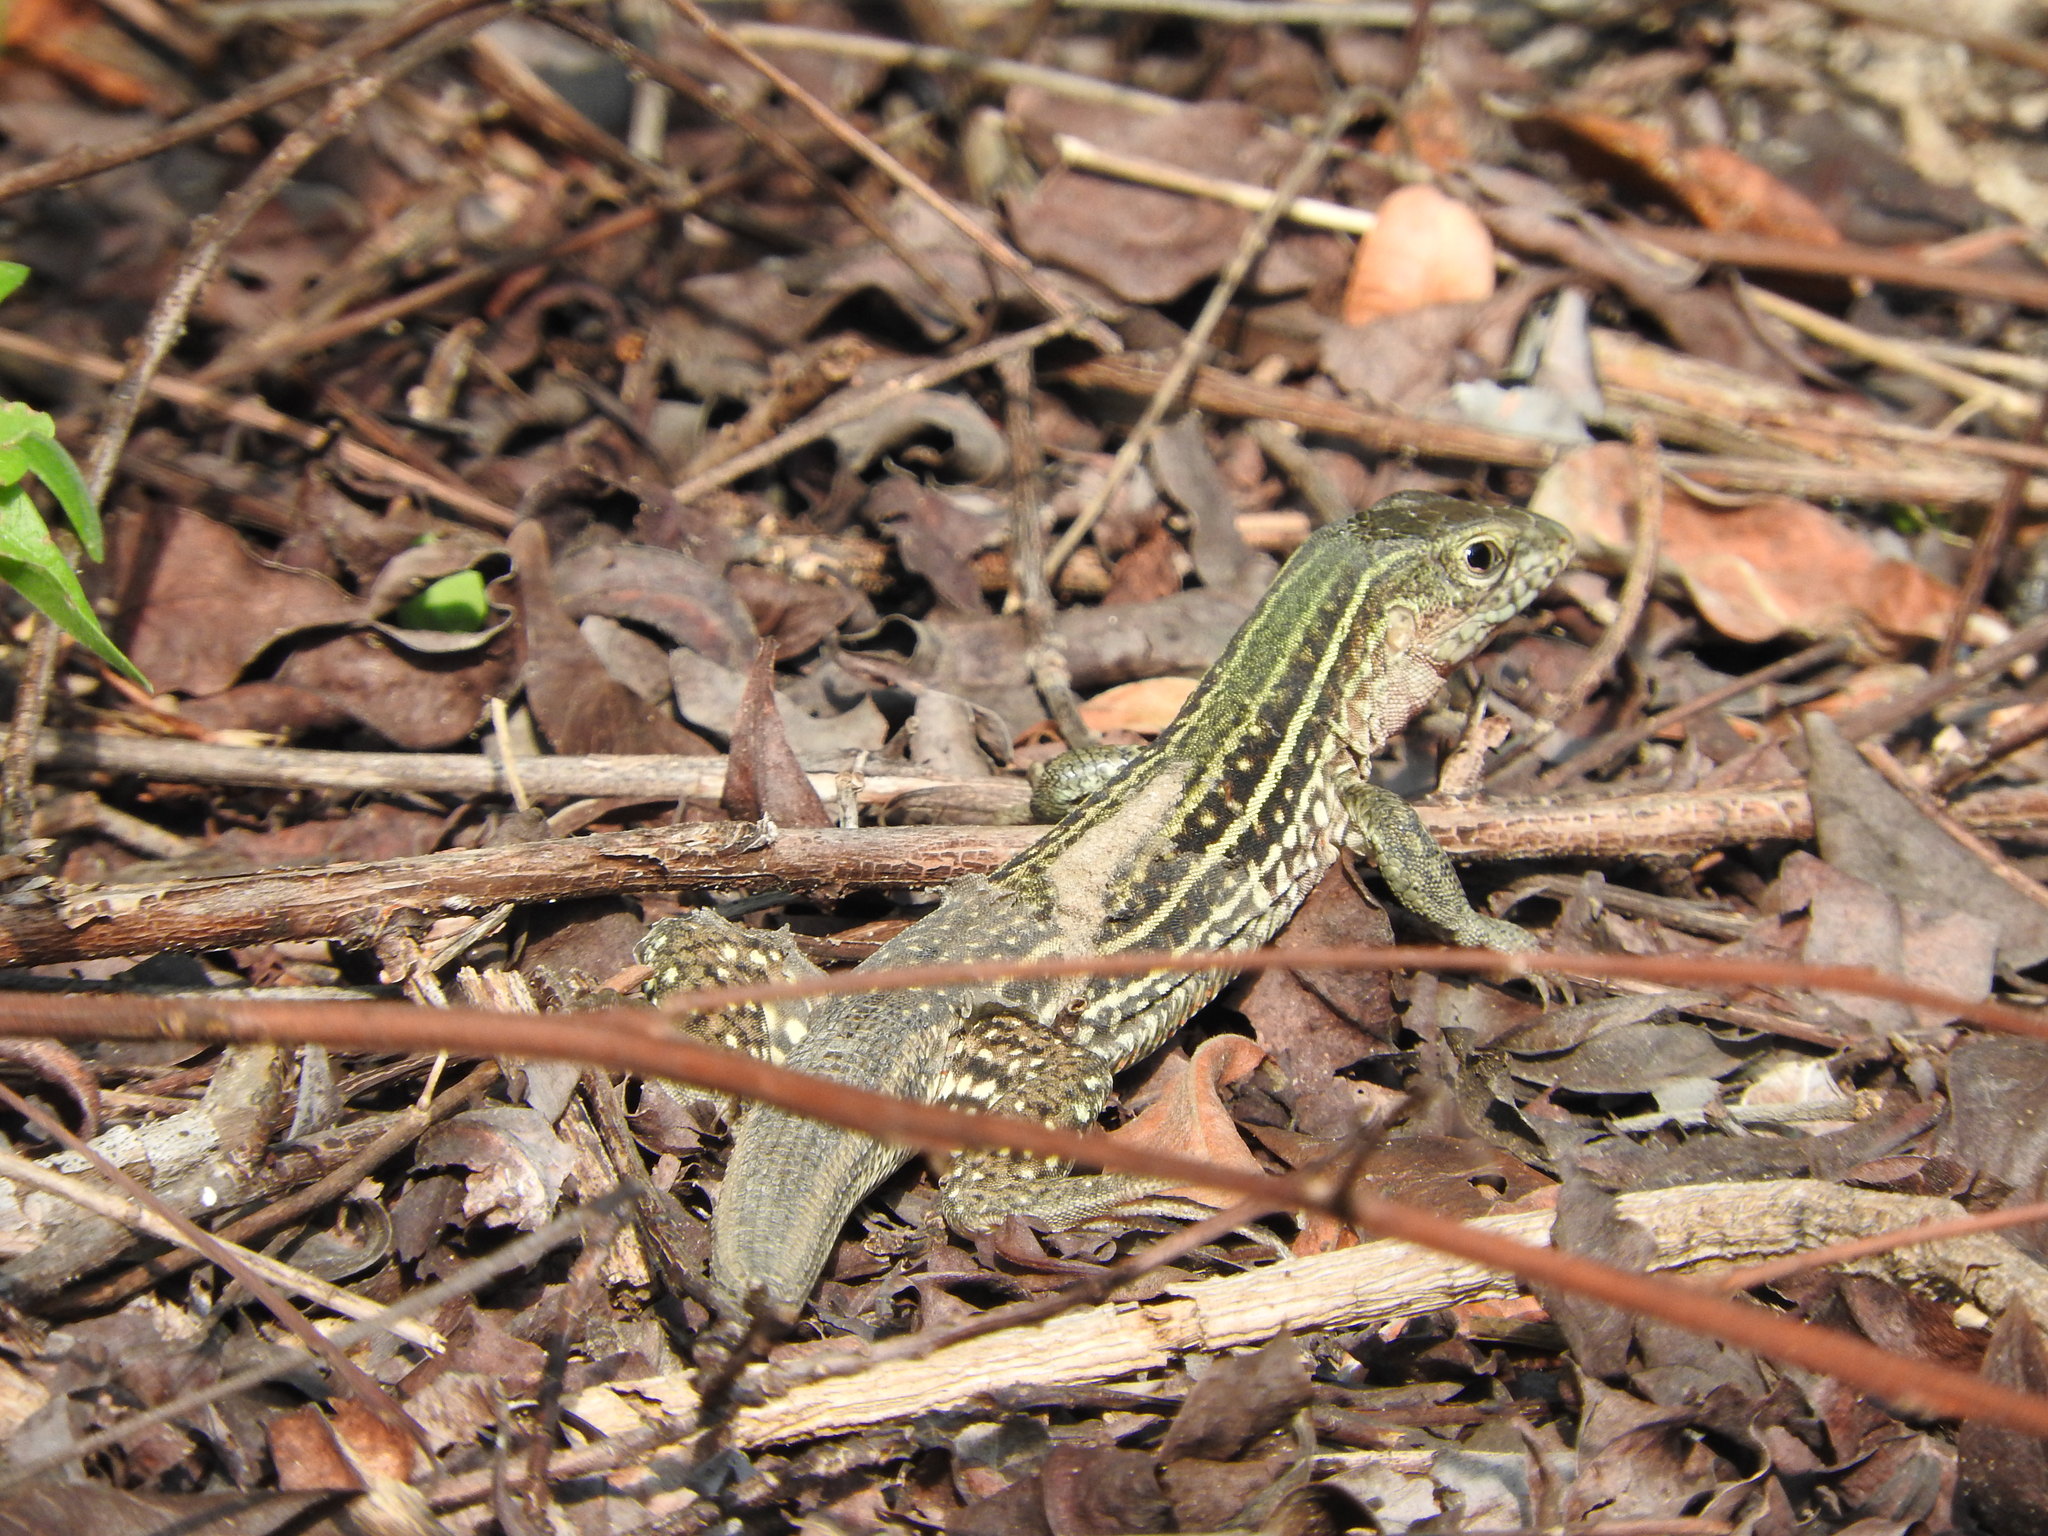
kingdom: Animalia
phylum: Chordata
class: Squamata
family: Teiidae
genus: Aspidoscelis
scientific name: Aspidoscelis costatus
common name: Western mexico whiptail
